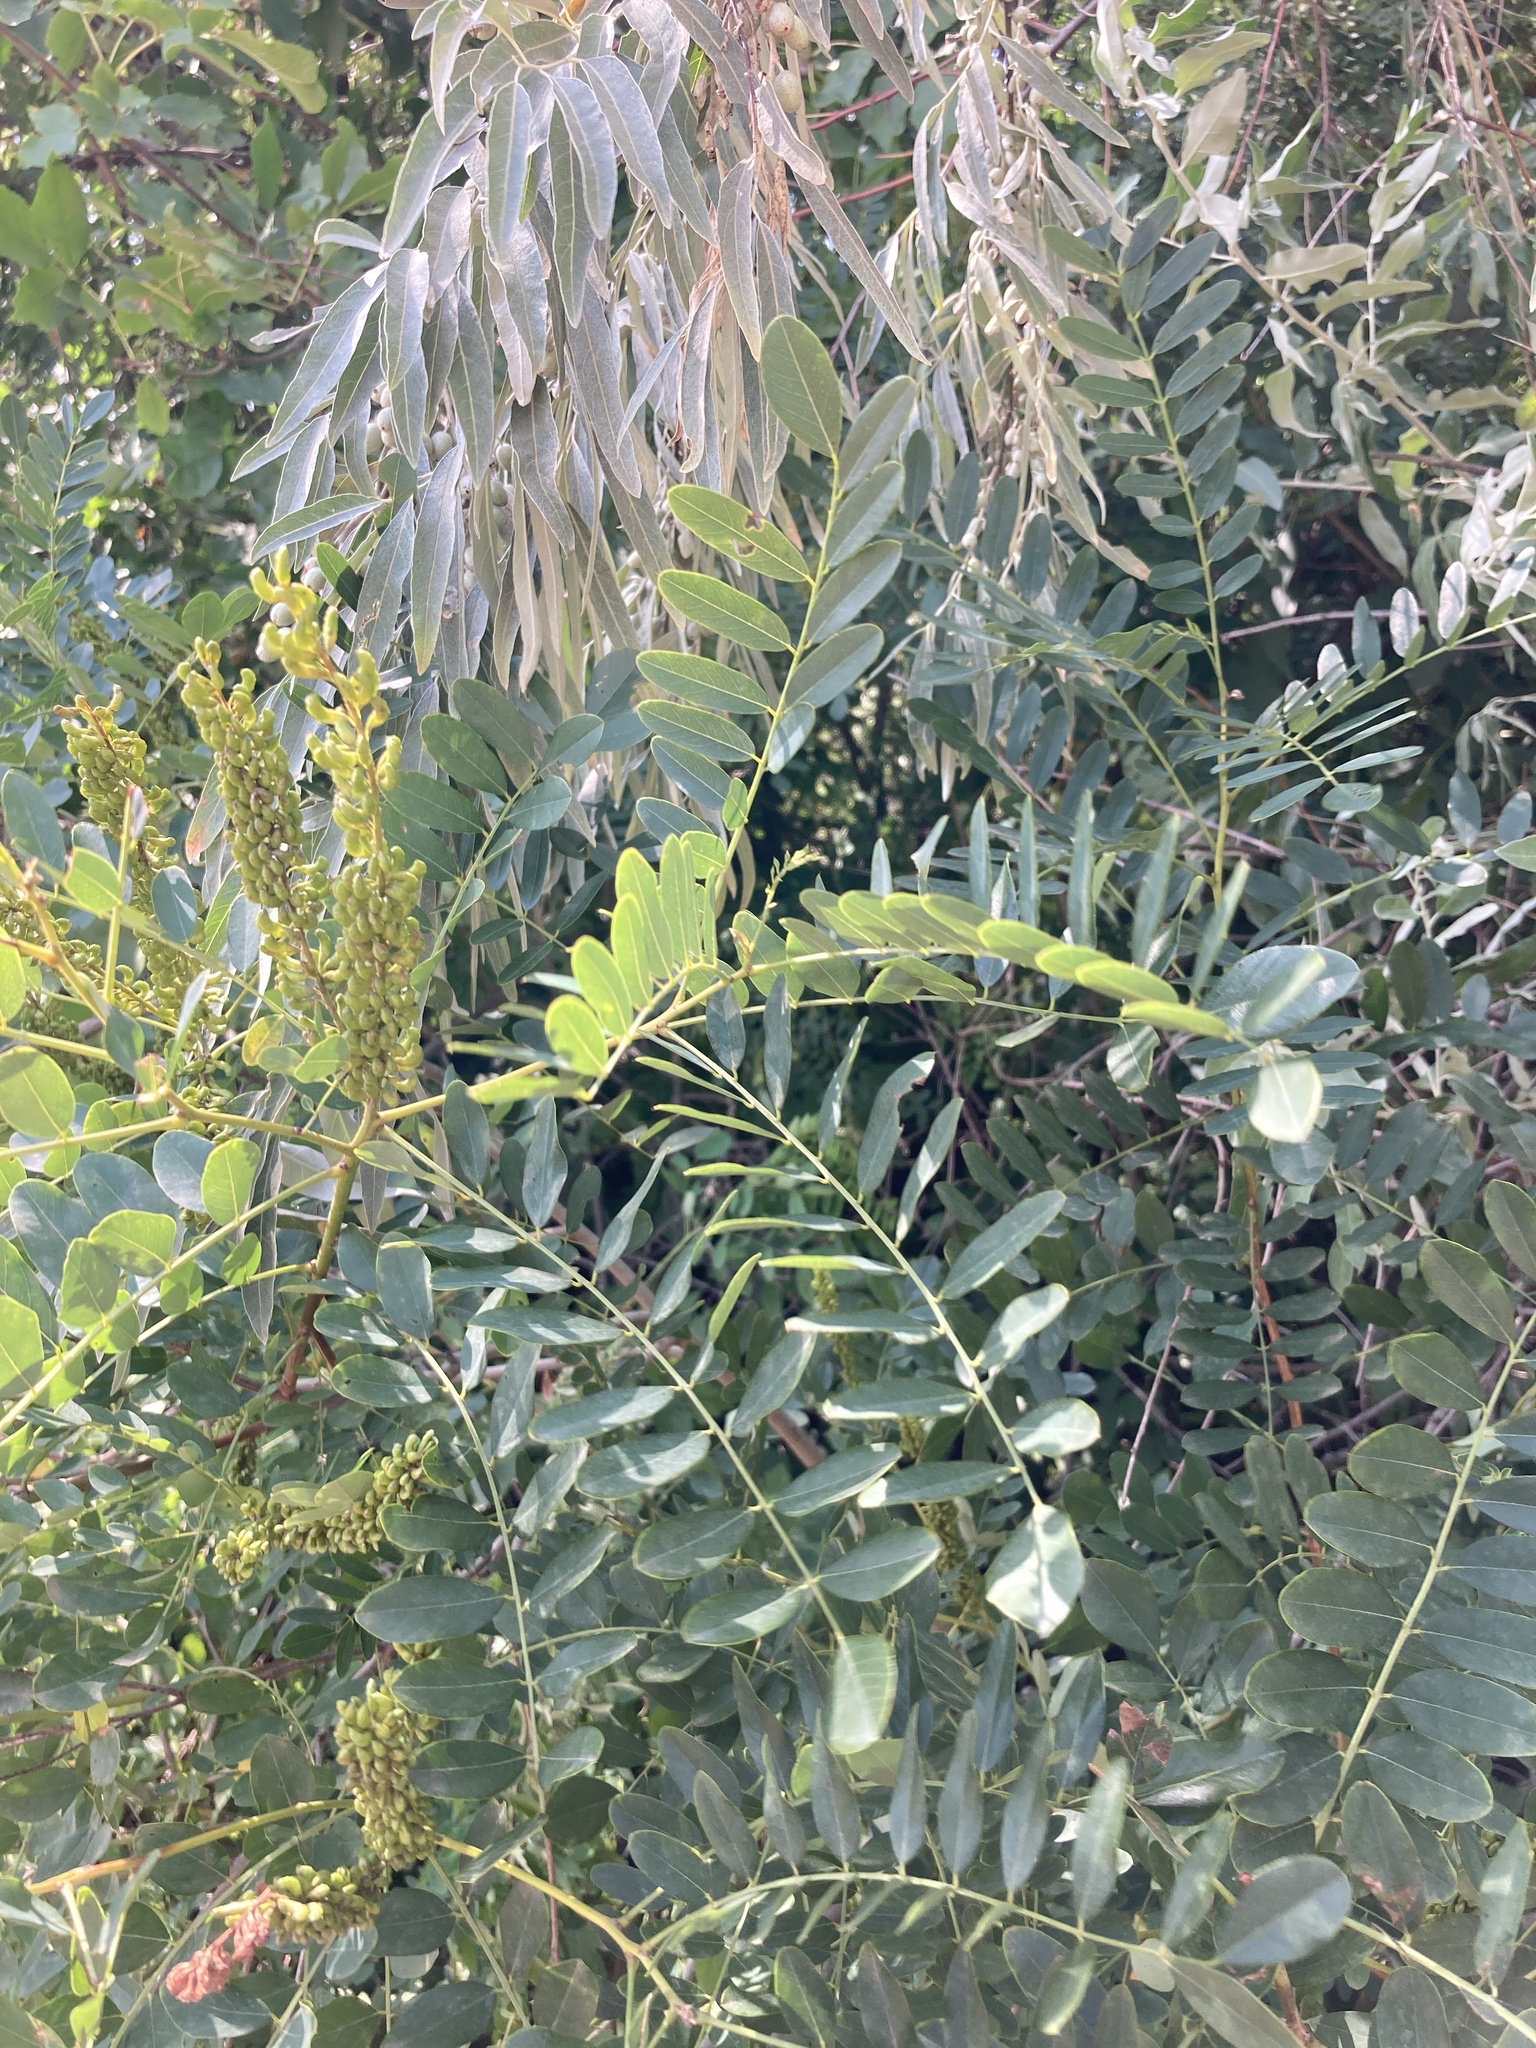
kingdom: Plantae
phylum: Tracheophyta
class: Magnoliopsida
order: Fabales
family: Fabaceae
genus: Amorpha
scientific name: Amorpha fruticosa
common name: False indigo
